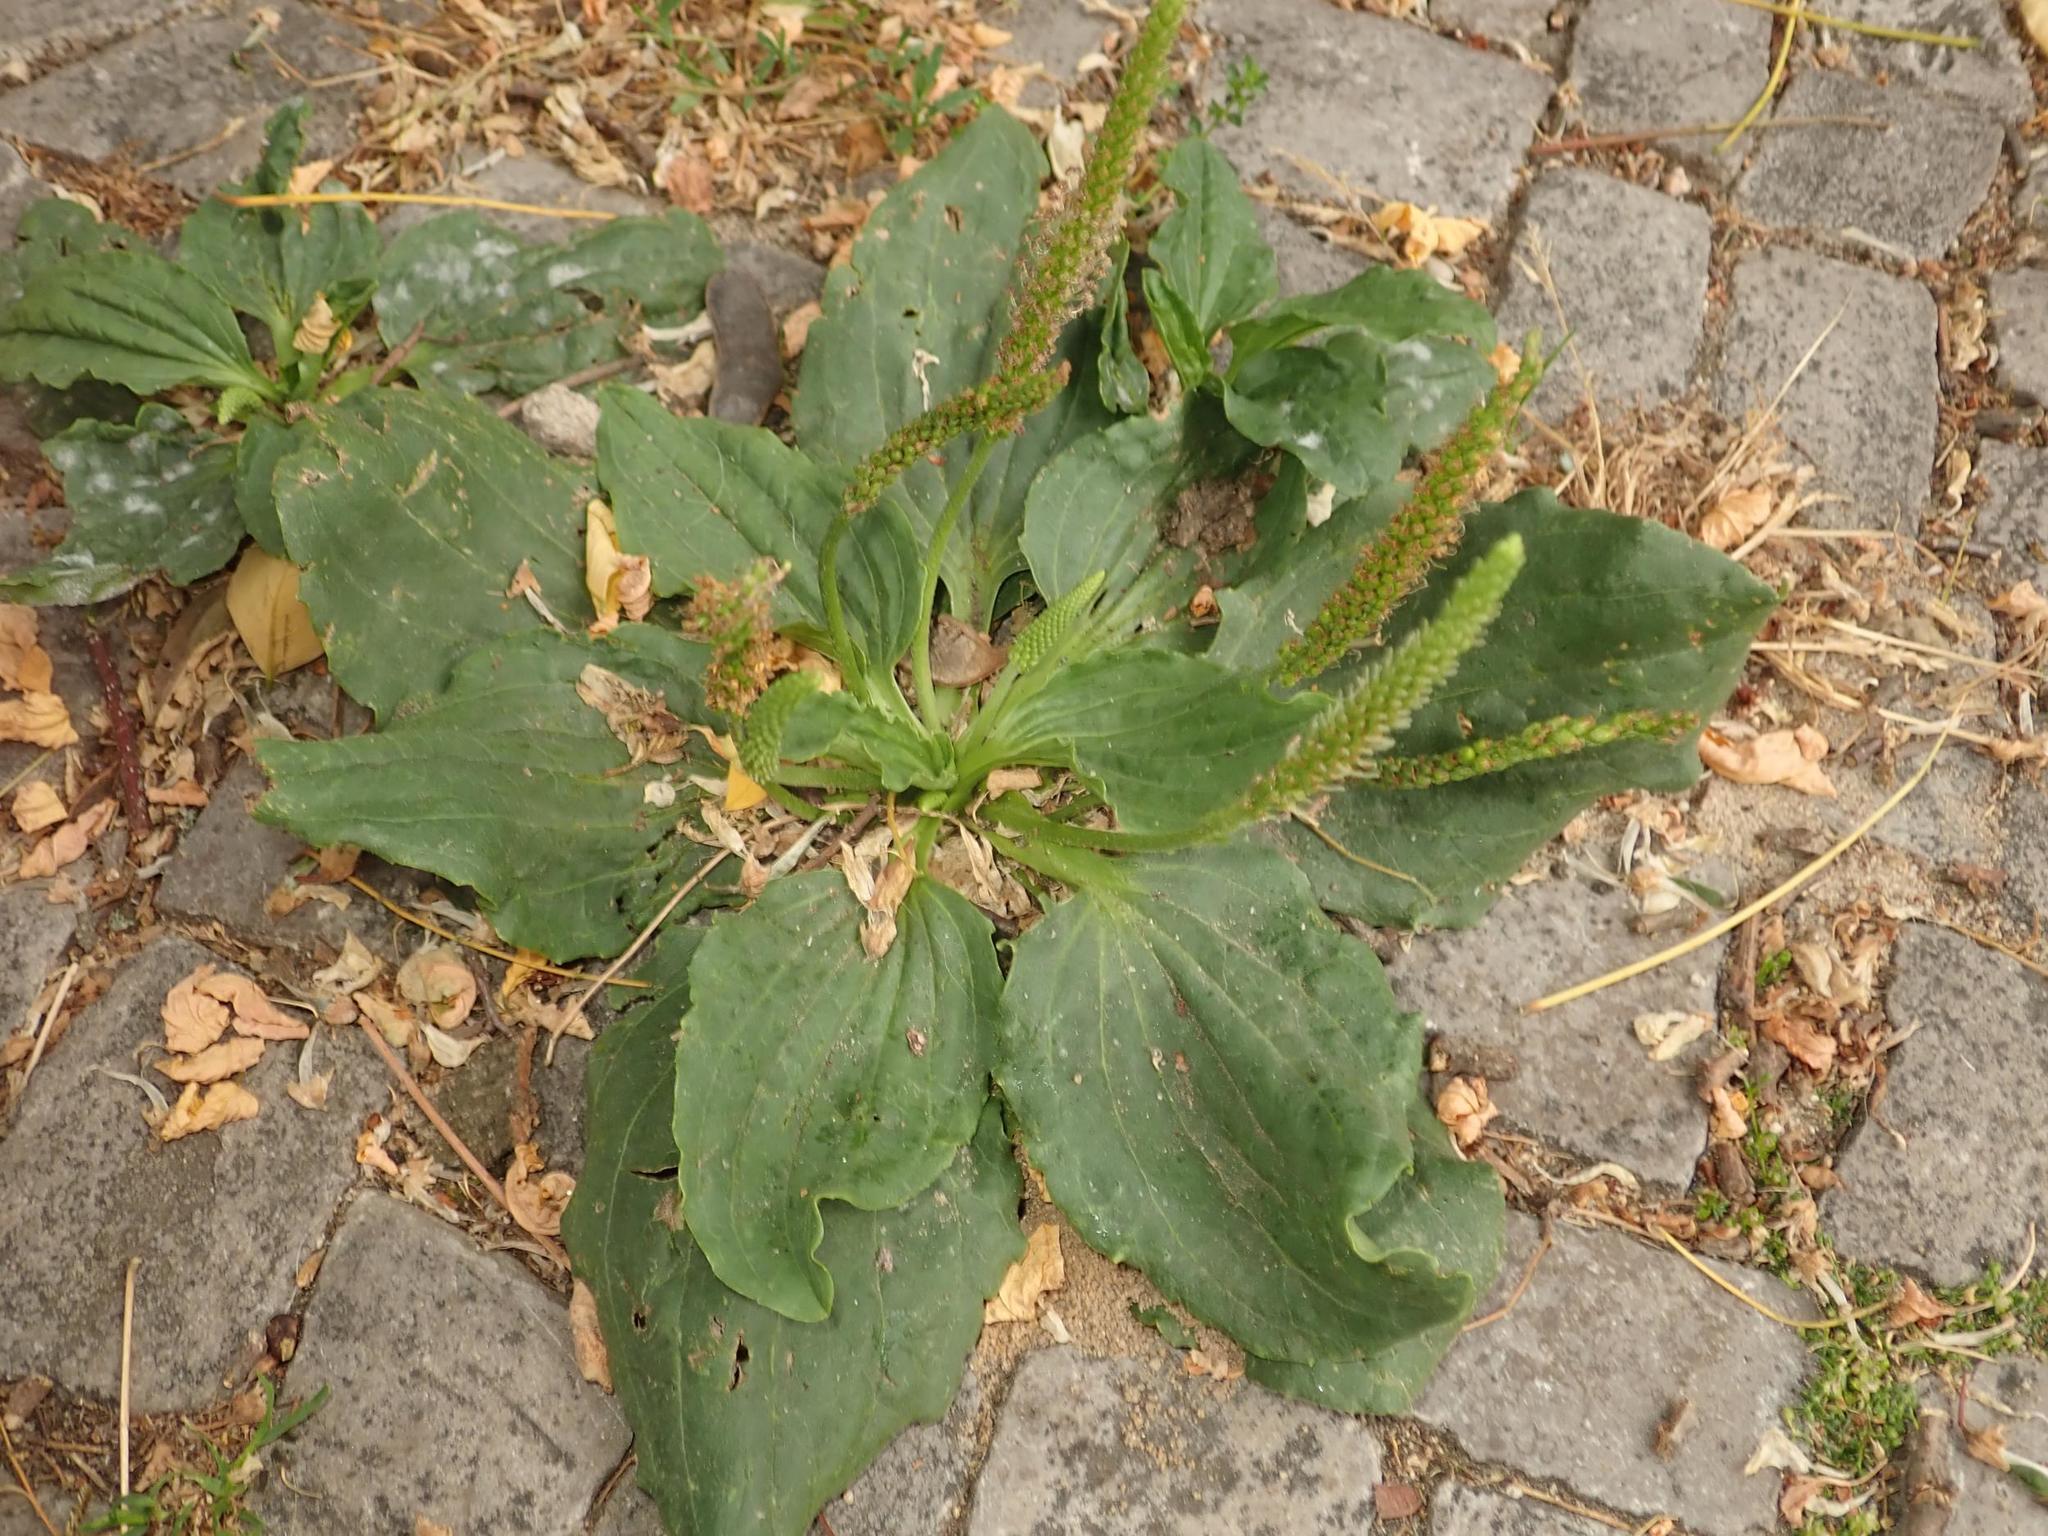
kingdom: Plantae
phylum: Tracheophyta
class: Magnoliopsida
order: Lamiales
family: Plantaginaceae
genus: Plantago
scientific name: Plantago major
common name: Common plantain
